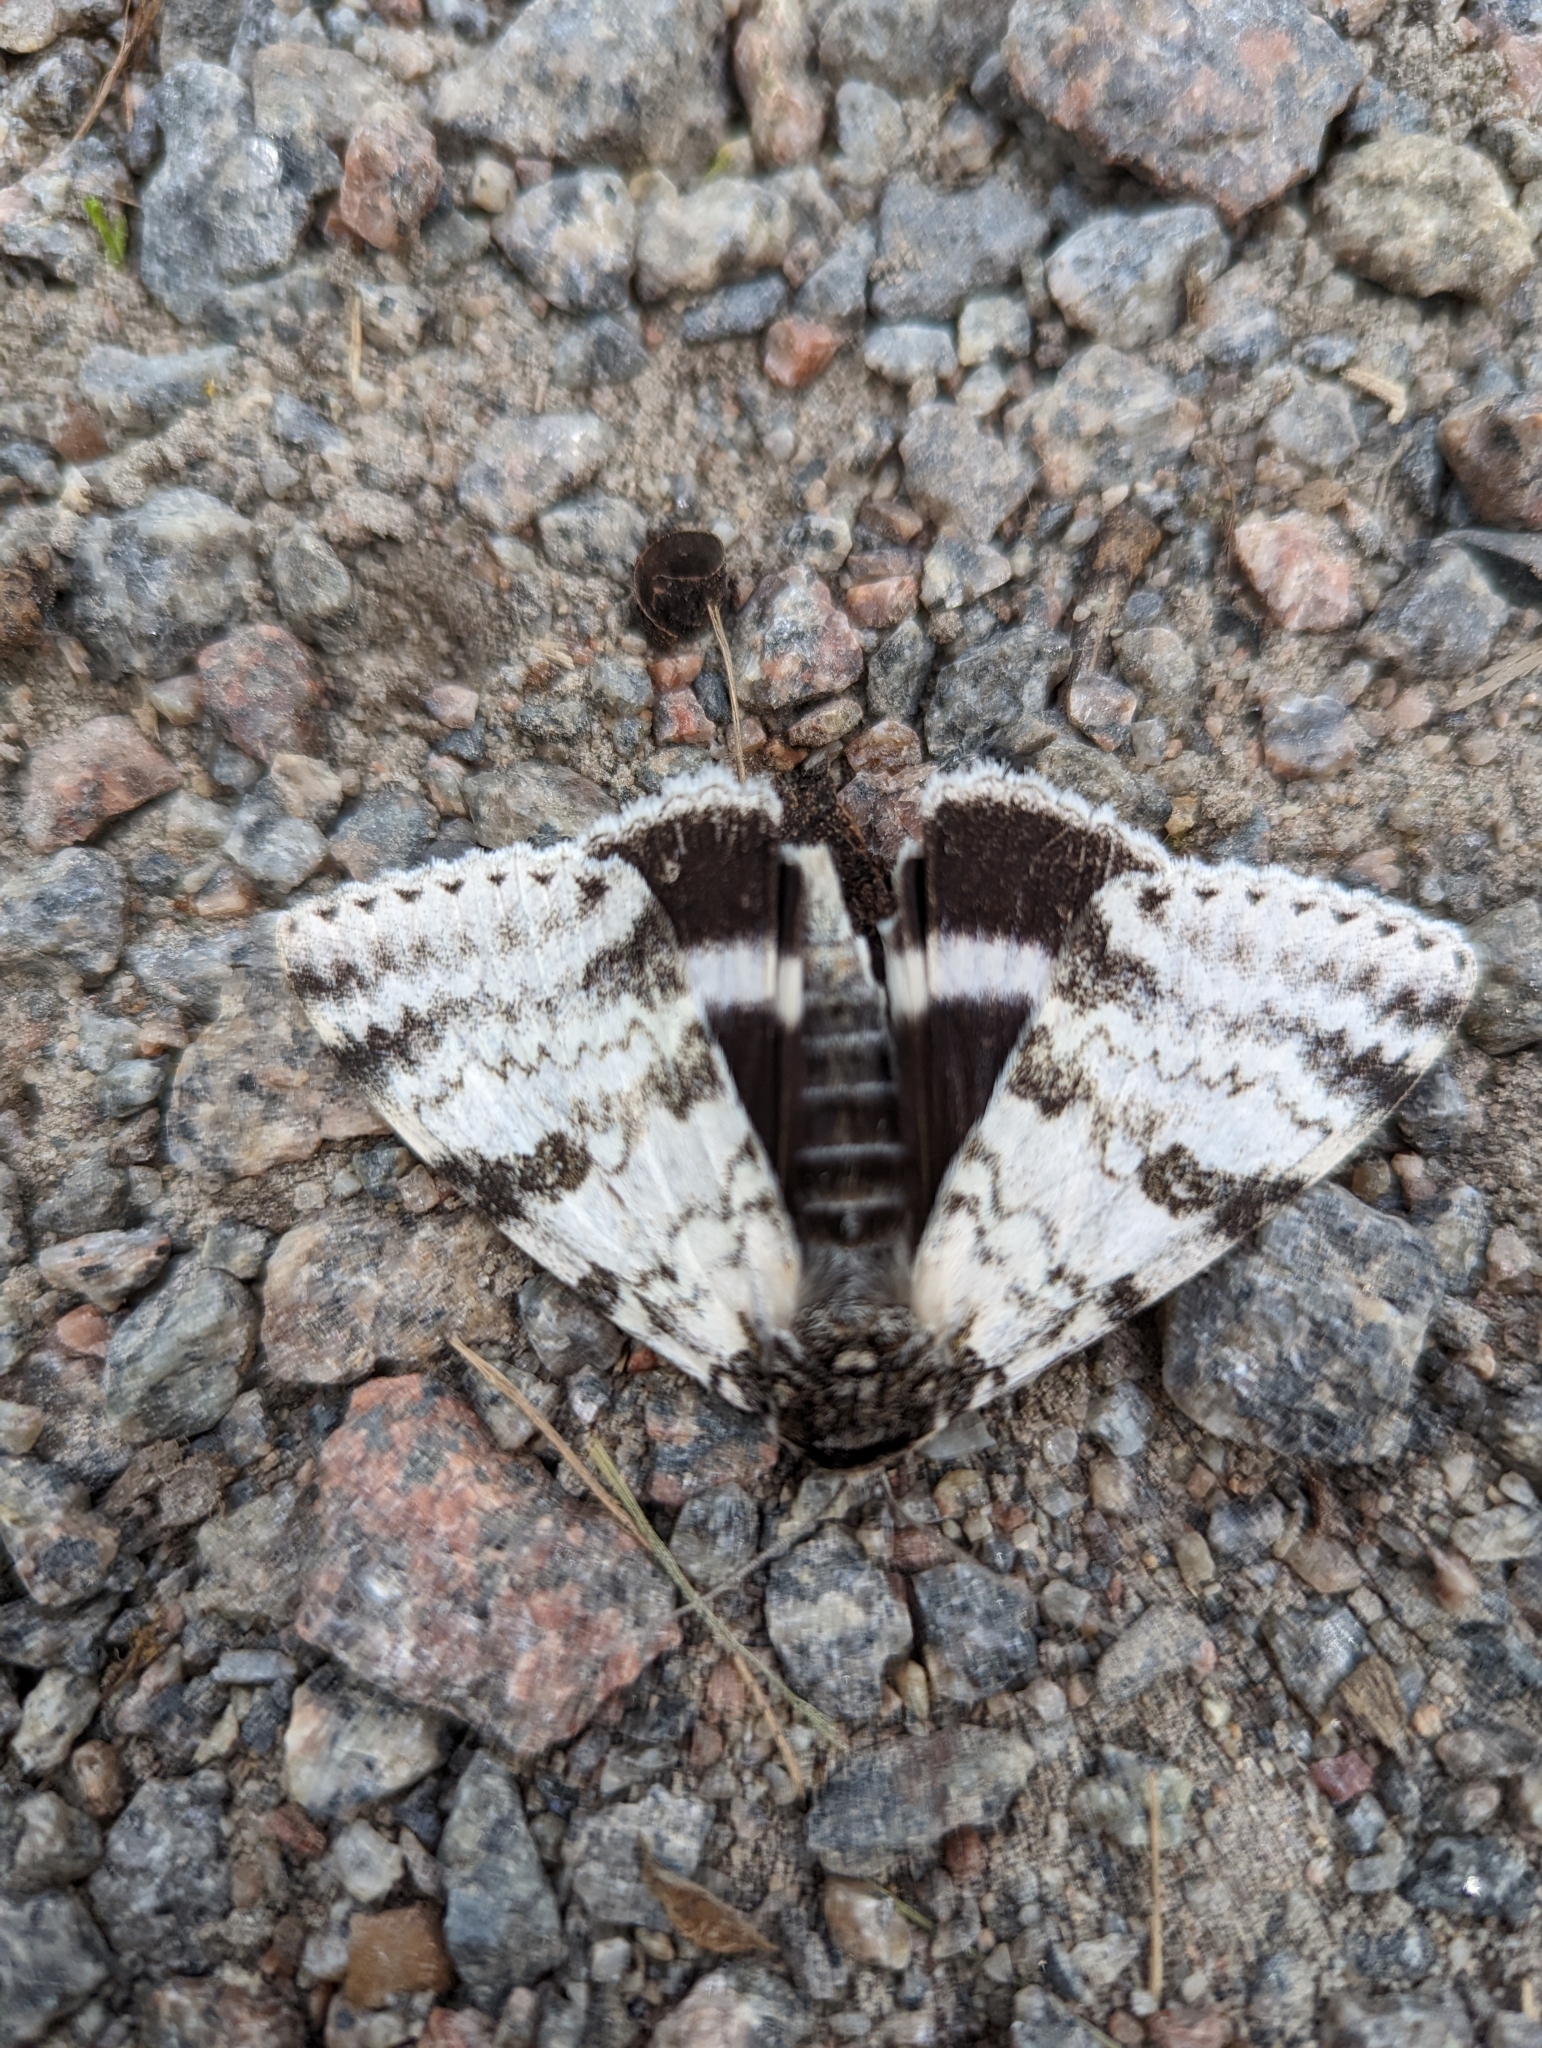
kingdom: Animalia
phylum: Arthropoda
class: Insecta
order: Lepidoptera
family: Erebidae
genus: Catocala
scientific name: Catocala relicta
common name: White underwing
